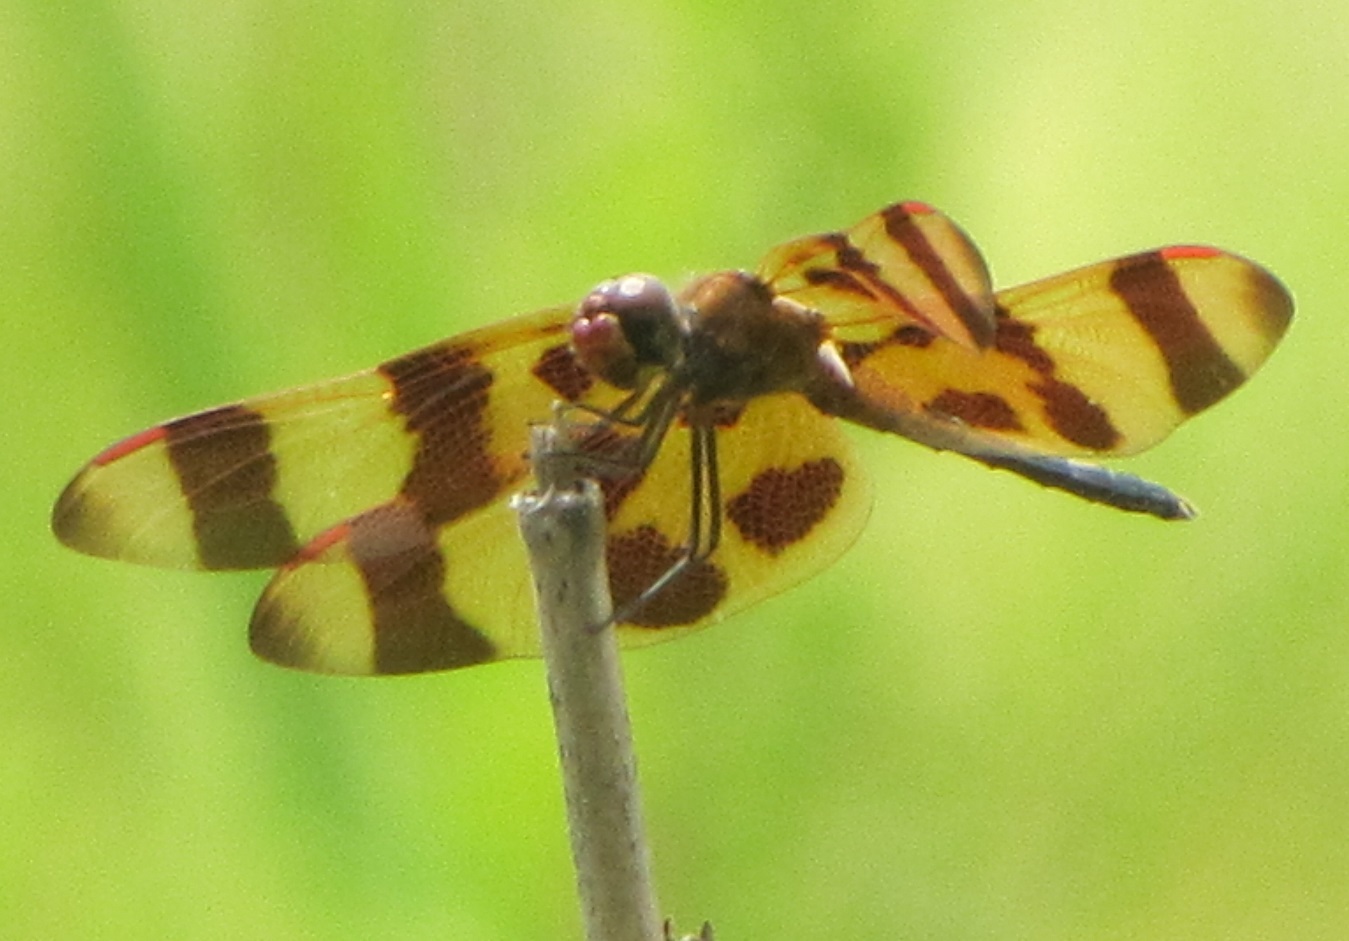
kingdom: Animalia
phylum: Arthropoda
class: Insecta
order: Odonata
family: Libellulidae
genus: Celithemis
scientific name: Celithemis eponina
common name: Halloween pennant
